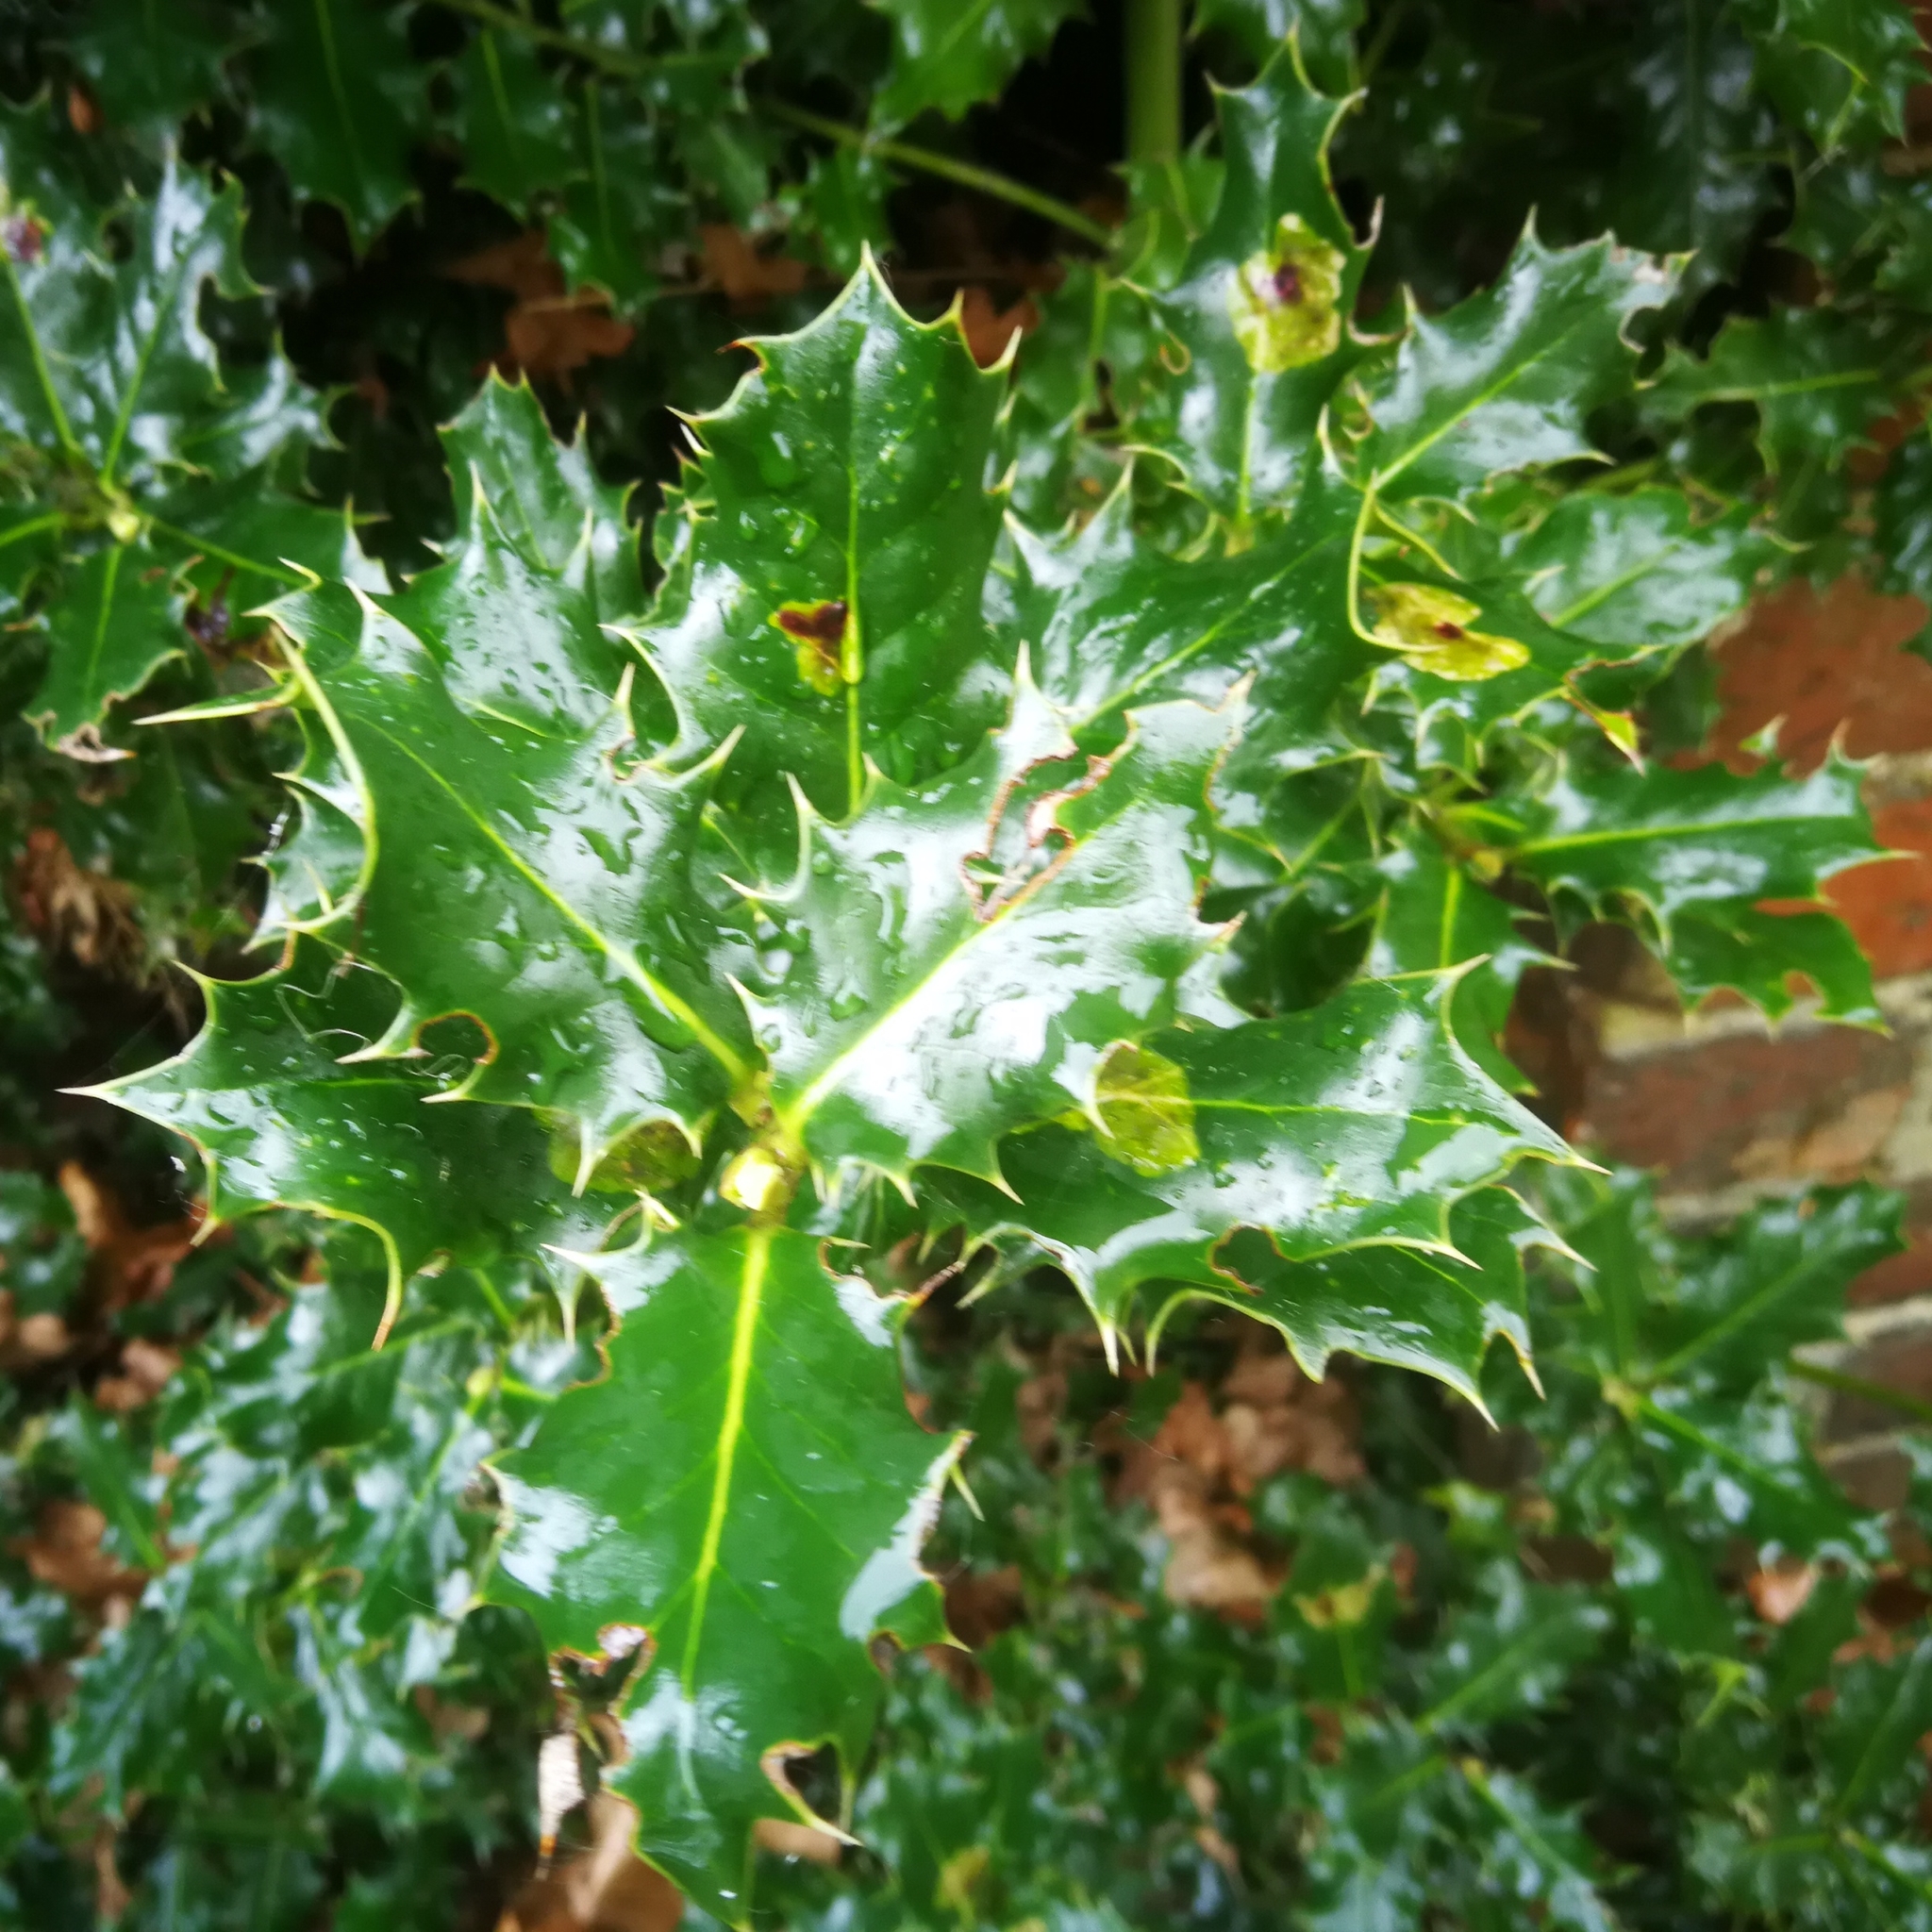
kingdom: Plantae
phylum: Tracheophyta
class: Magnoliopsida
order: Aquifoliales
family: Aquifoliaceae
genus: Ilex
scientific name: Ilex aquifolium
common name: English holly
